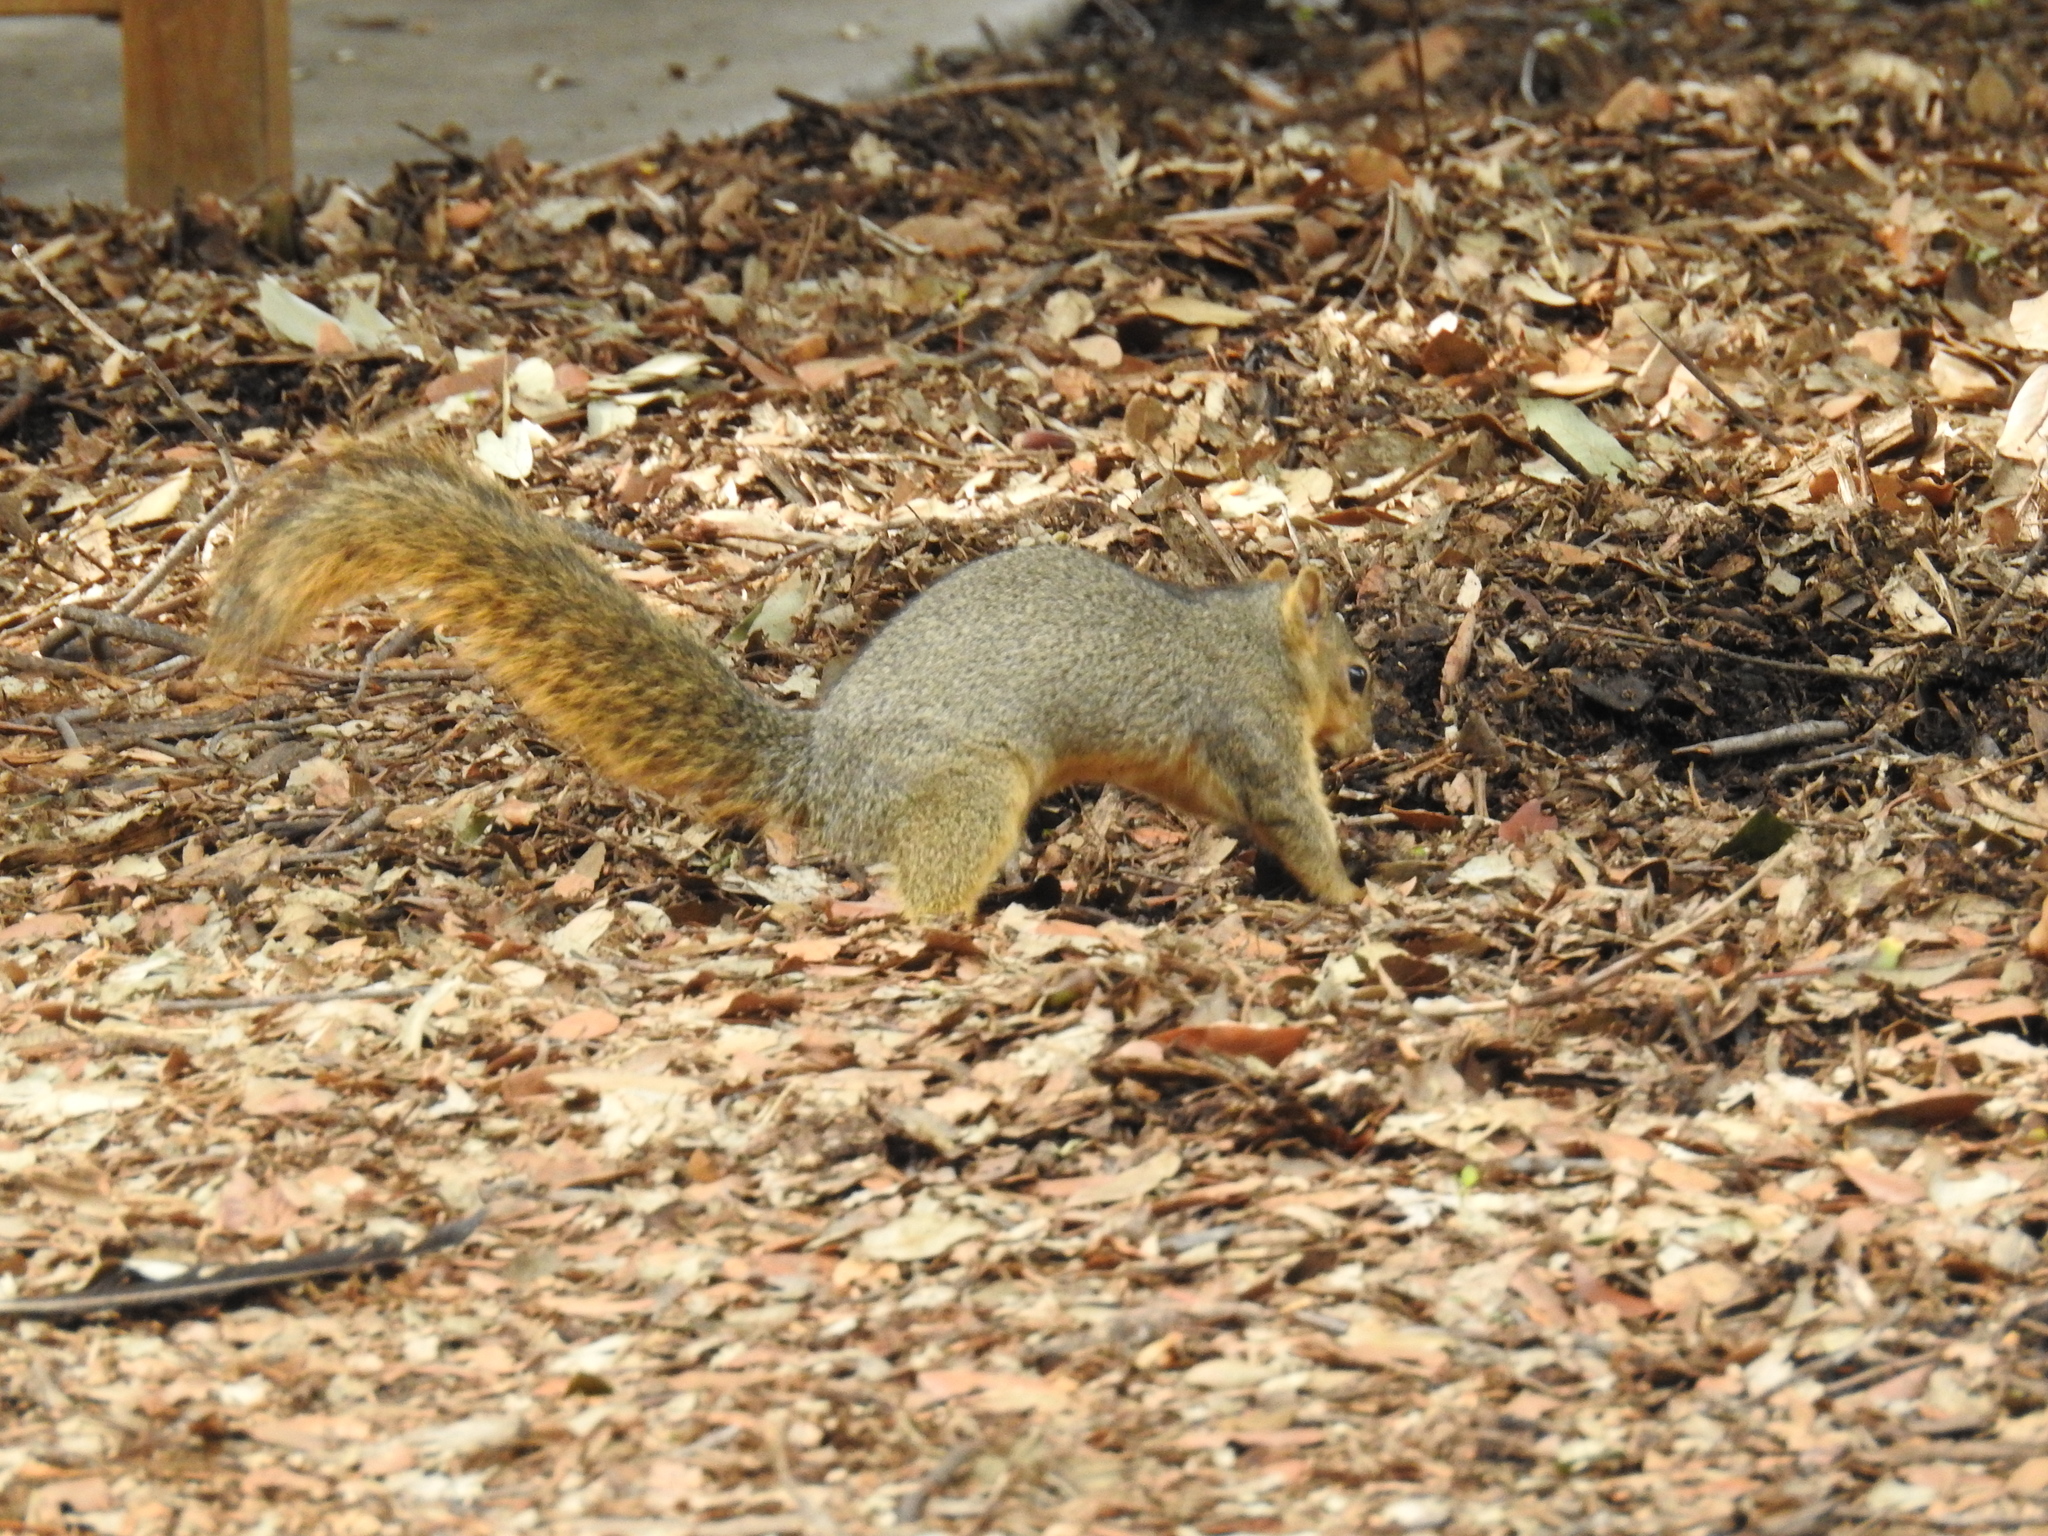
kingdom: Animalia
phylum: Chordata
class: Mammalia
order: Rodentia
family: Sciuridae
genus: Sciurus
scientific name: Sciurus niger
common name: Fox squirrel
